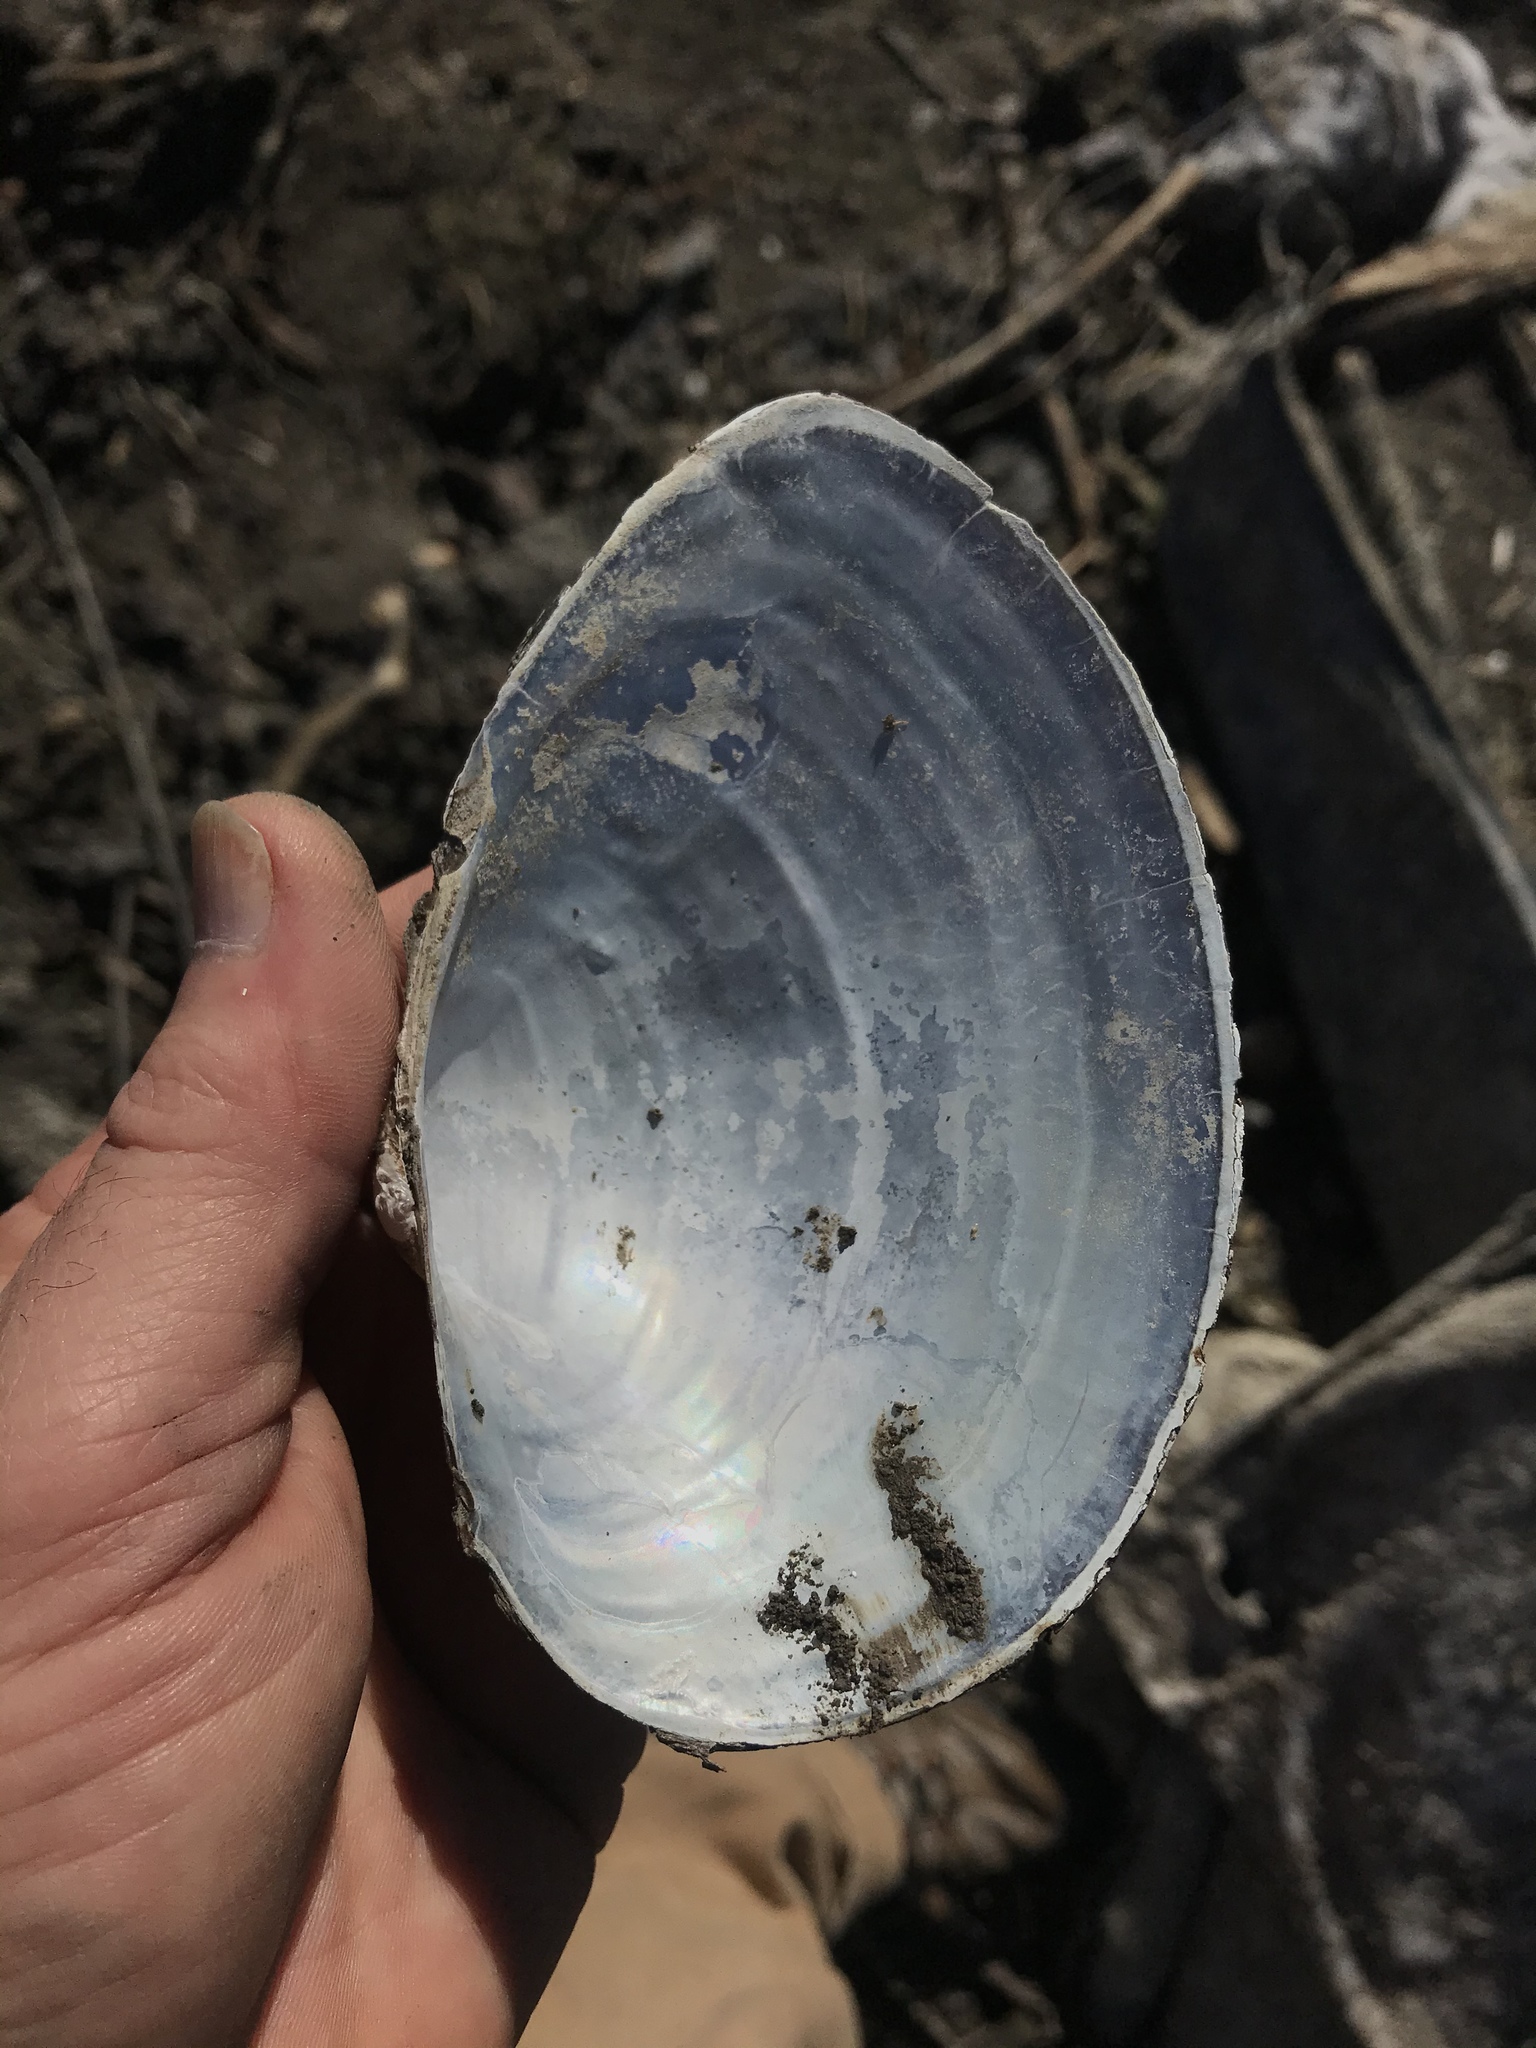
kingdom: Animalia
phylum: Mollusca
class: Bivalvia
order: Unionida
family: Unionidae
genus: Pyganodon
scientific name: Pyganodon grandis
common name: Giant floater
